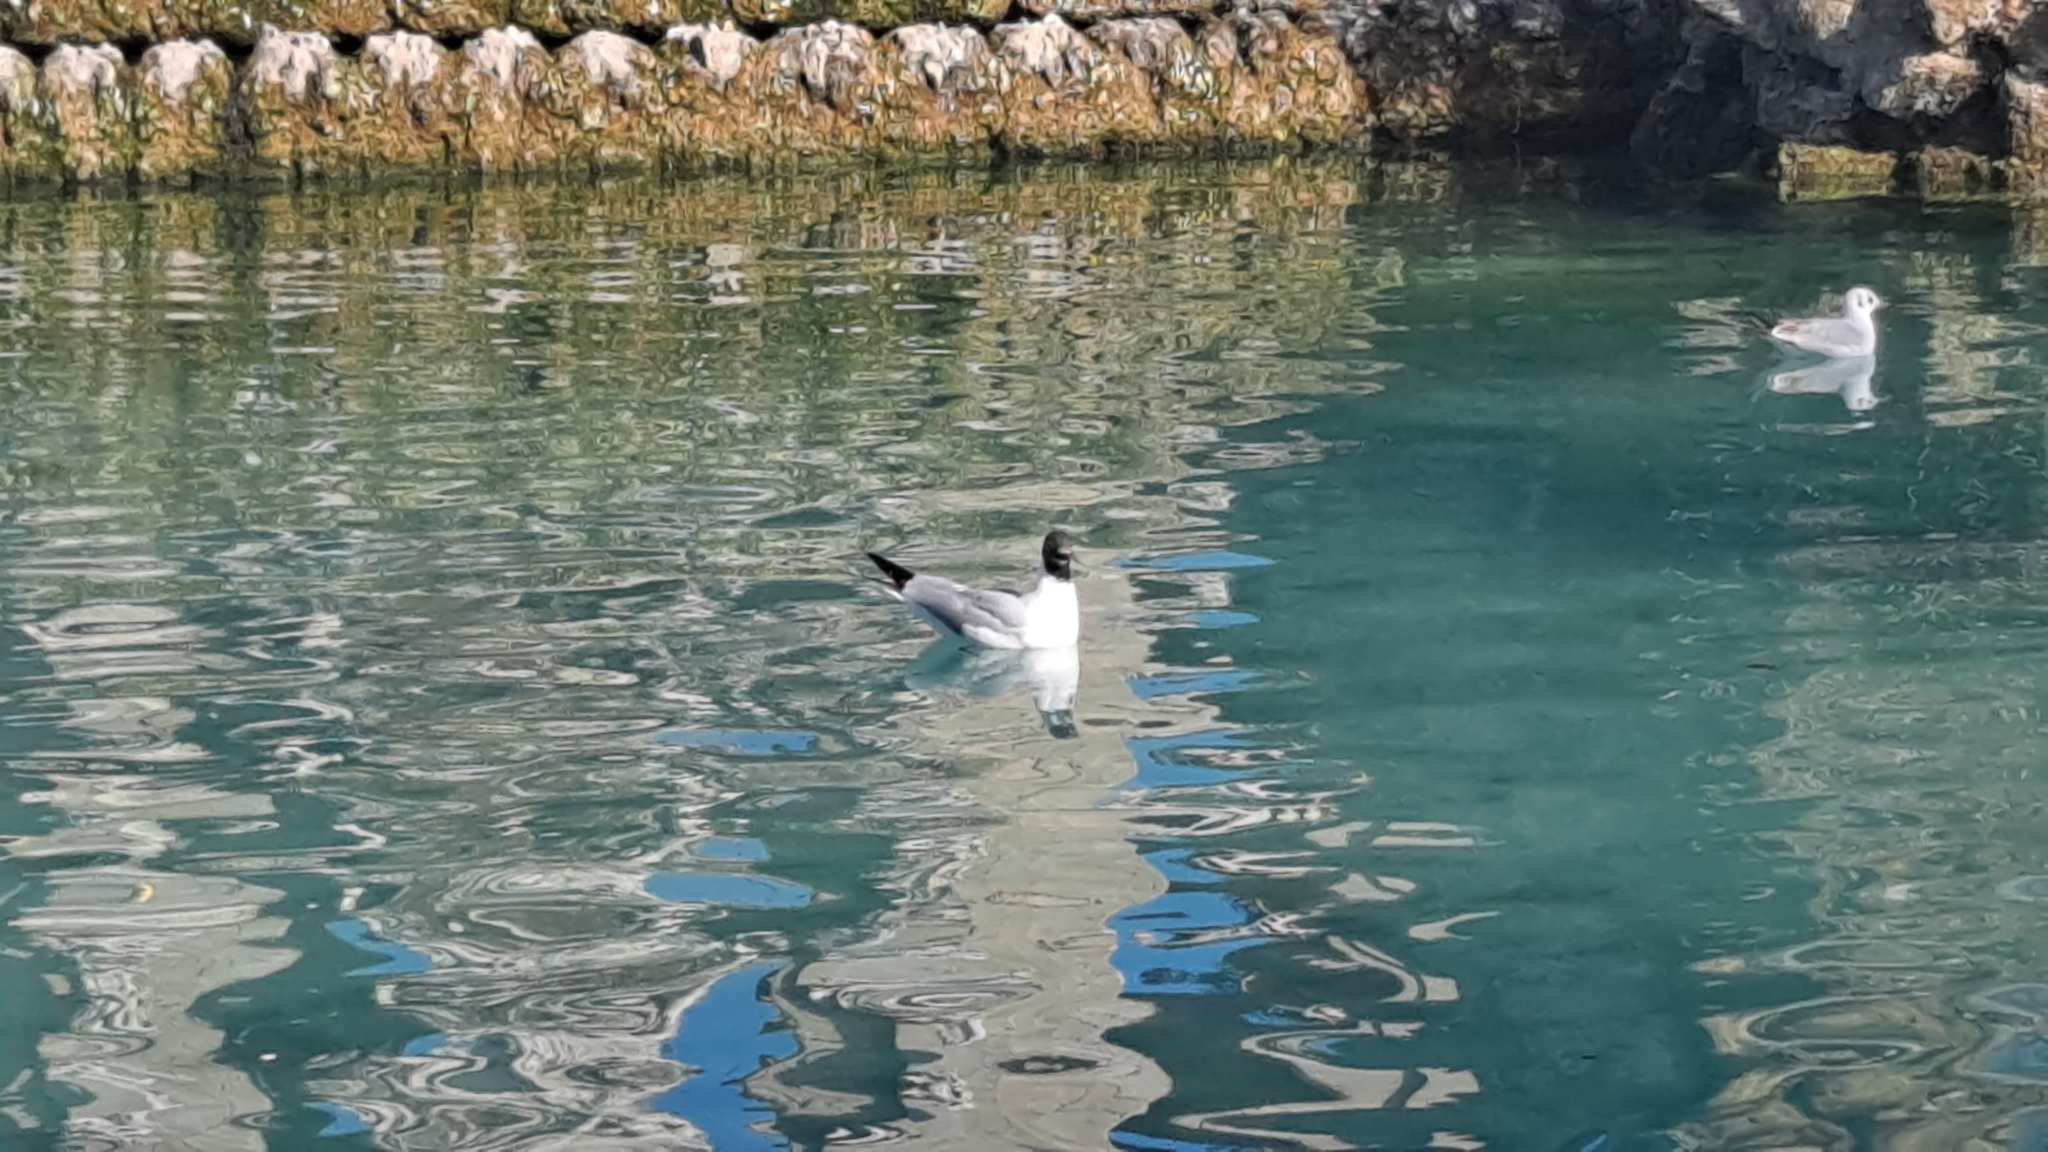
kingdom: Animalia
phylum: Chordata
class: Aves
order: Charadriiformes
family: Laridae
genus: Chroicocephalus
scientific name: Chroicocephalus ridibundus
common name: Black-headed gull
